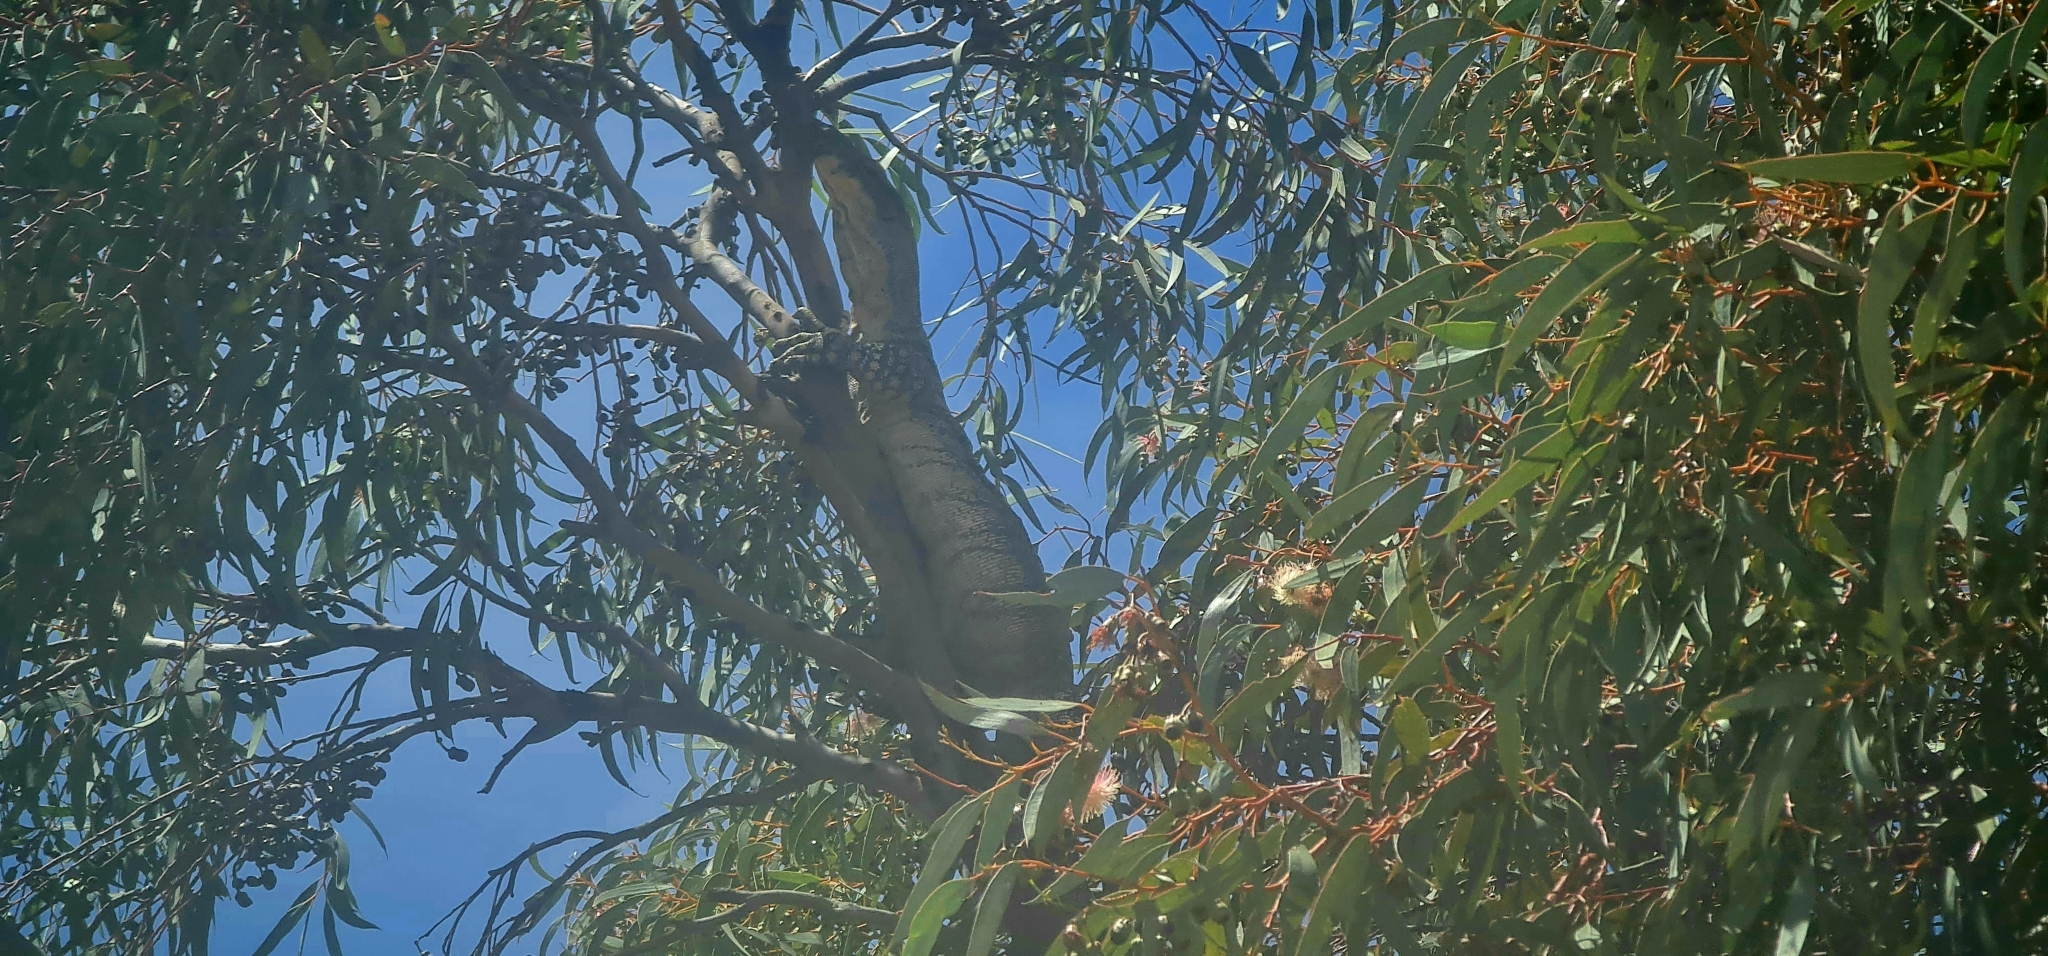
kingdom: Animalia
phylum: Chordata
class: Squamata
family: Varanidae
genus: Varanus
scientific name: Varanus varius
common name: Lace monitor
